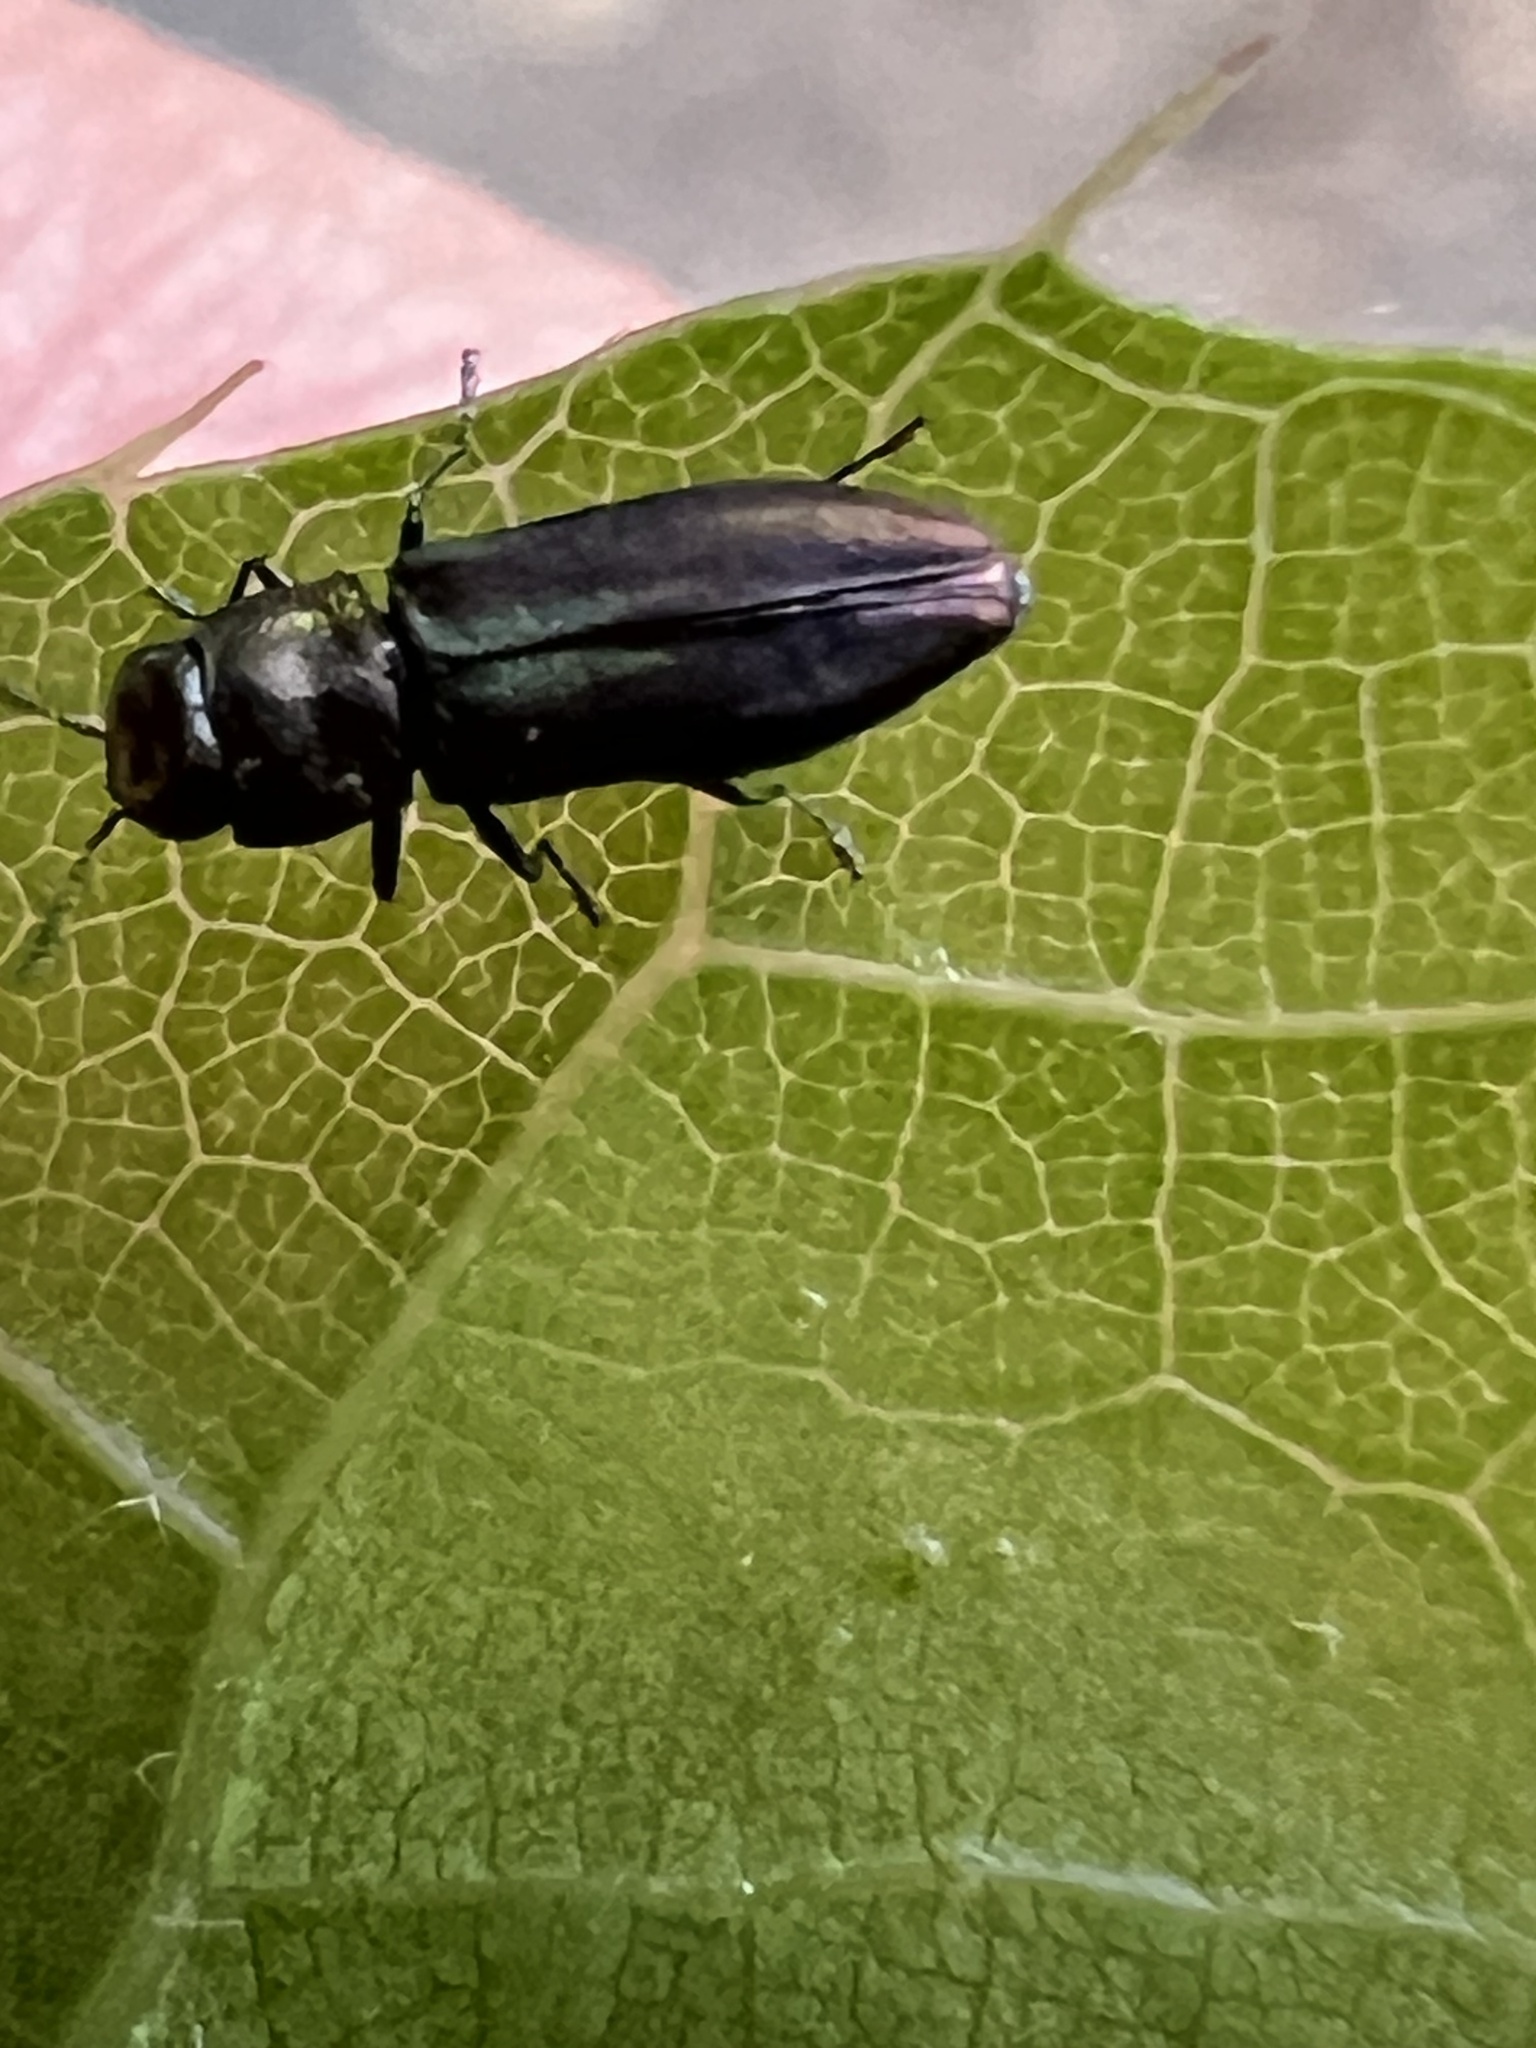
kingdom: Animalia
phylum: Arthropoda
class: Insecta
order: Coleoptera
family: Buprestidae
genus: Anthaxia
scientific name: Anthaxia quercata
